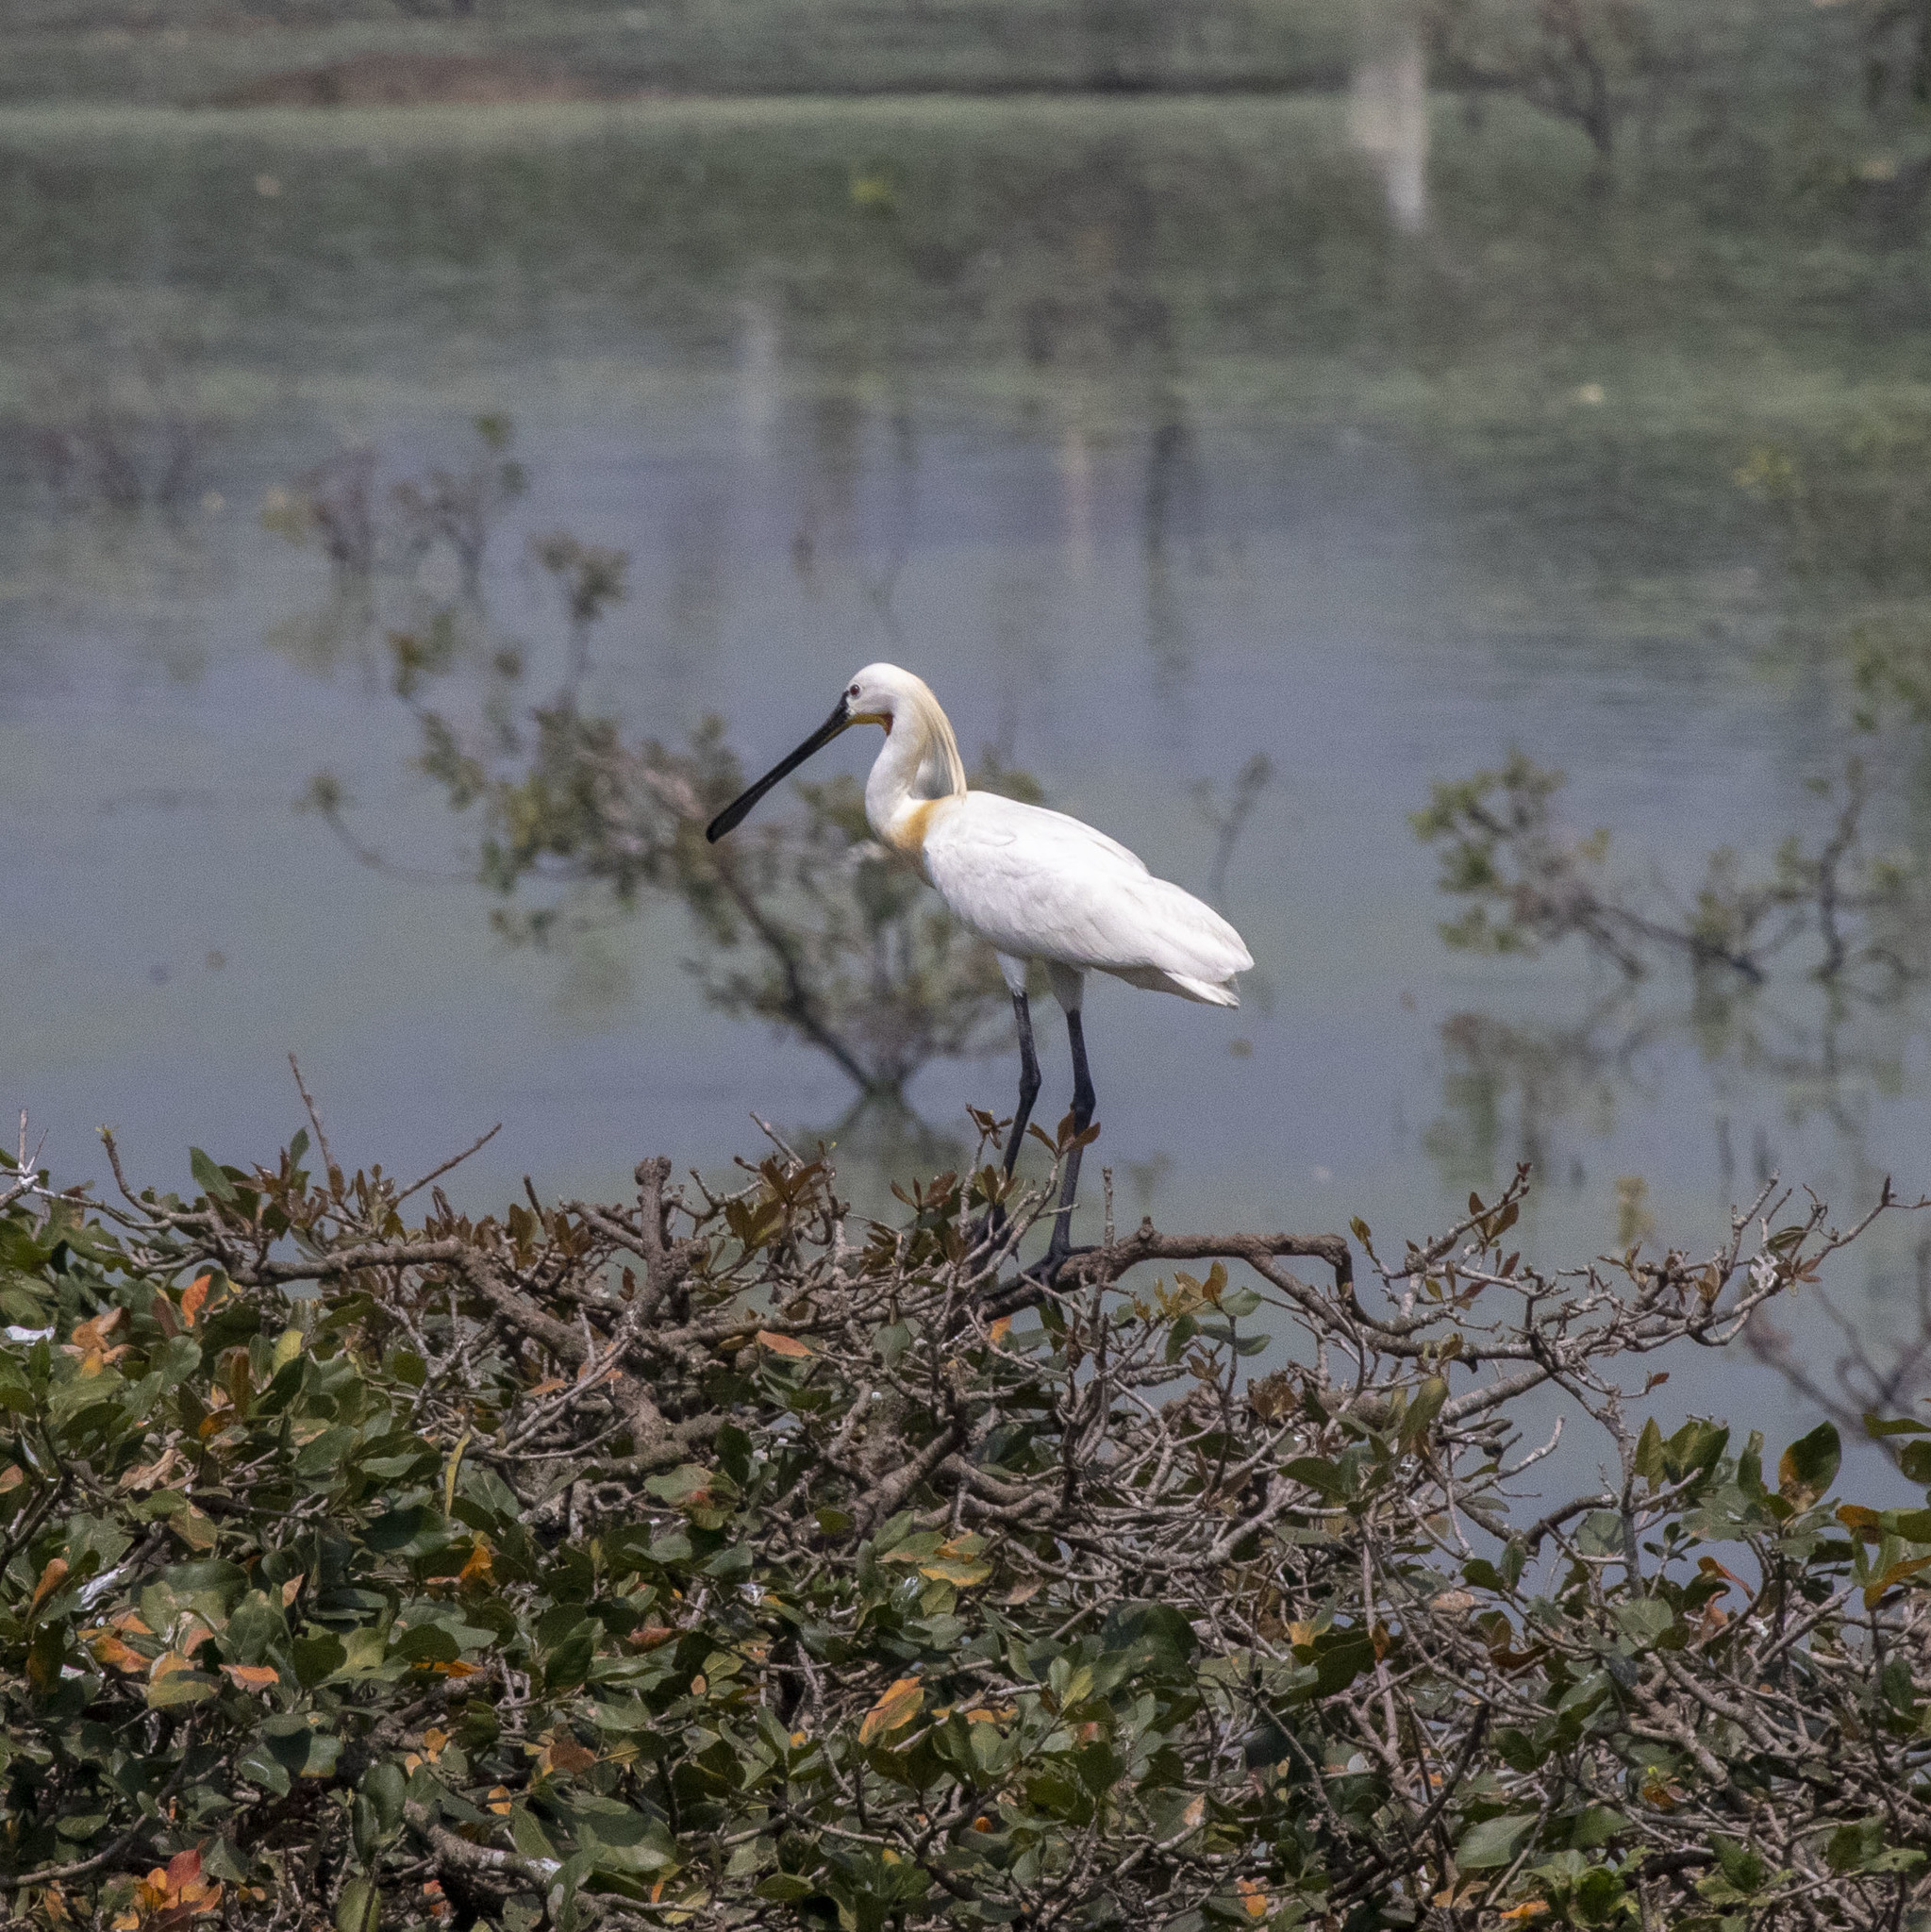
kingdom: Animalia
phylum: Chordata
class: Aves
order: Pelecaniformes
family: Threskiornithidae
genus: Platalea
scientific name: Platalea leucorodia
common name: Eurasian spoonbill
